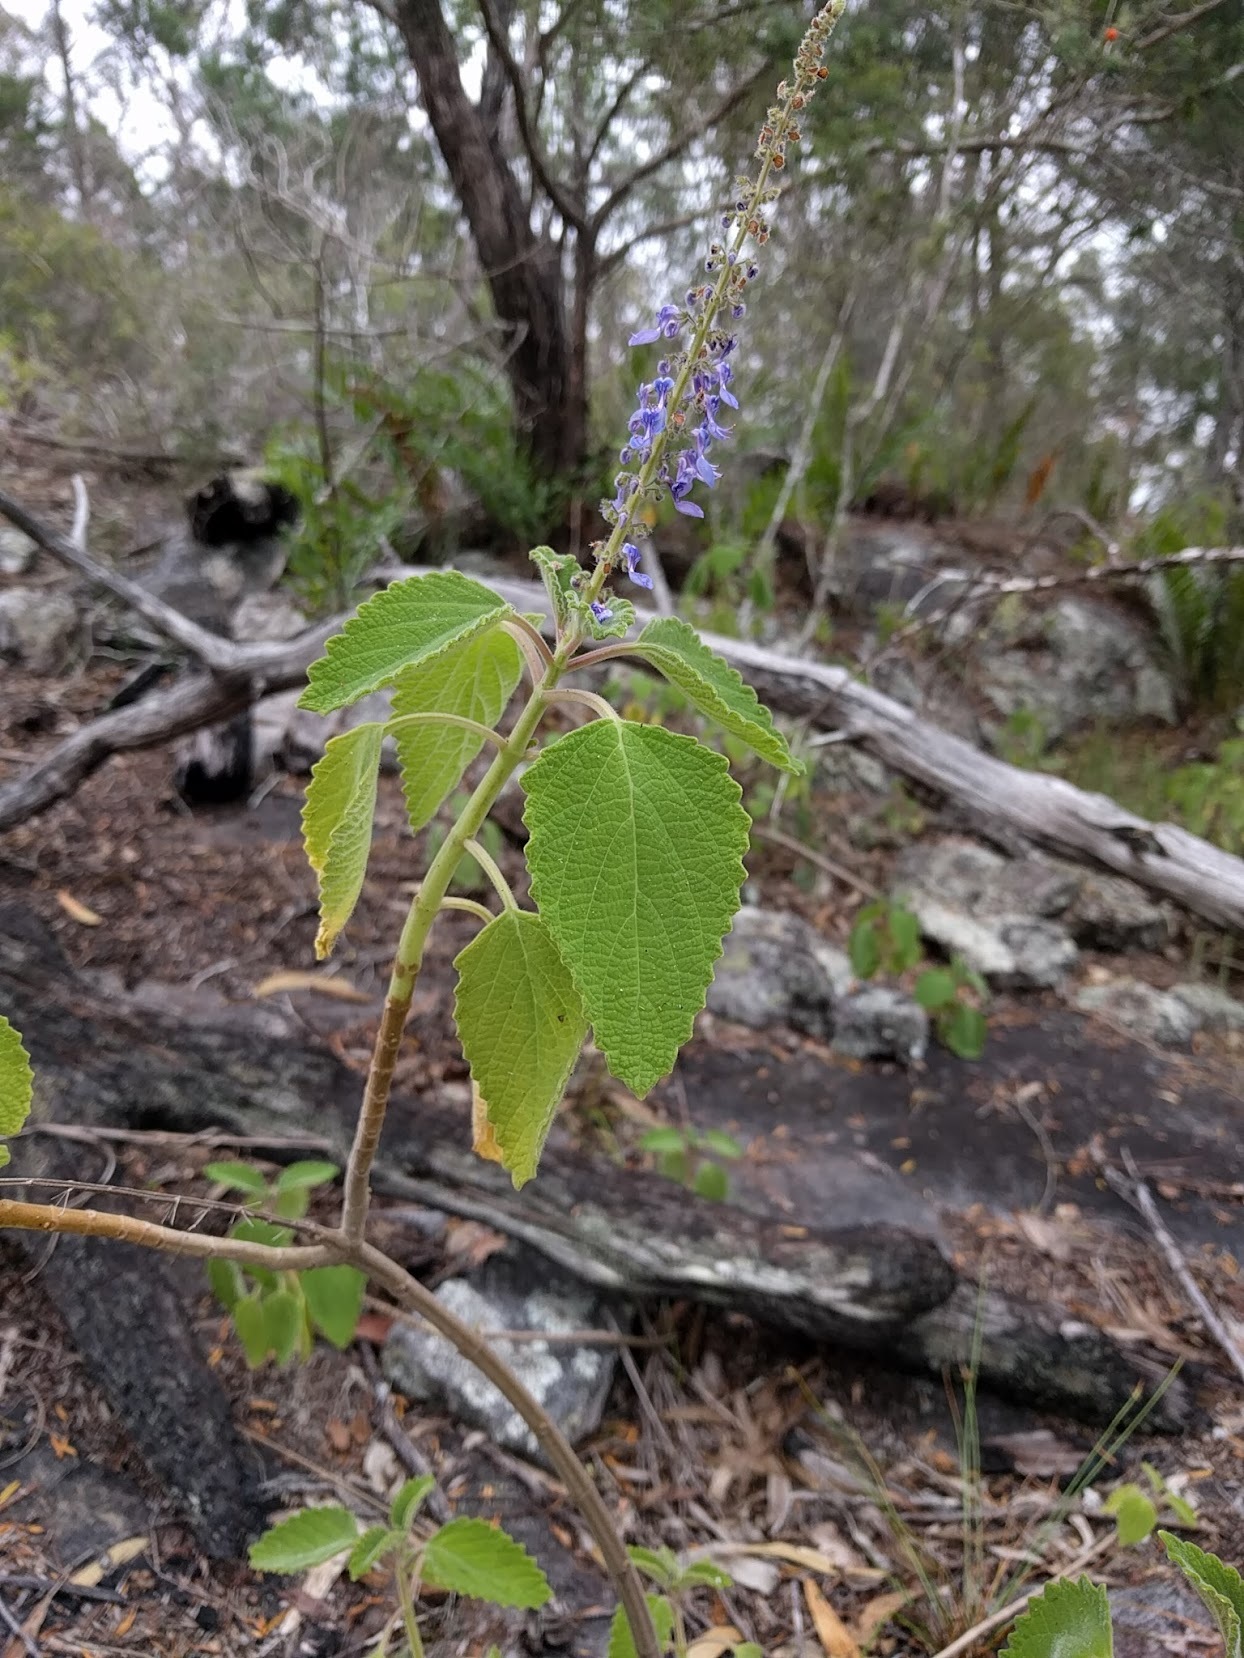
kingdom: Plantae
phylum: Tracheophyta
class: Magnoliopsida
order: Lamiales
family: Lamiaceae
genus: Coleus
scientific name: Coleus graveolens
